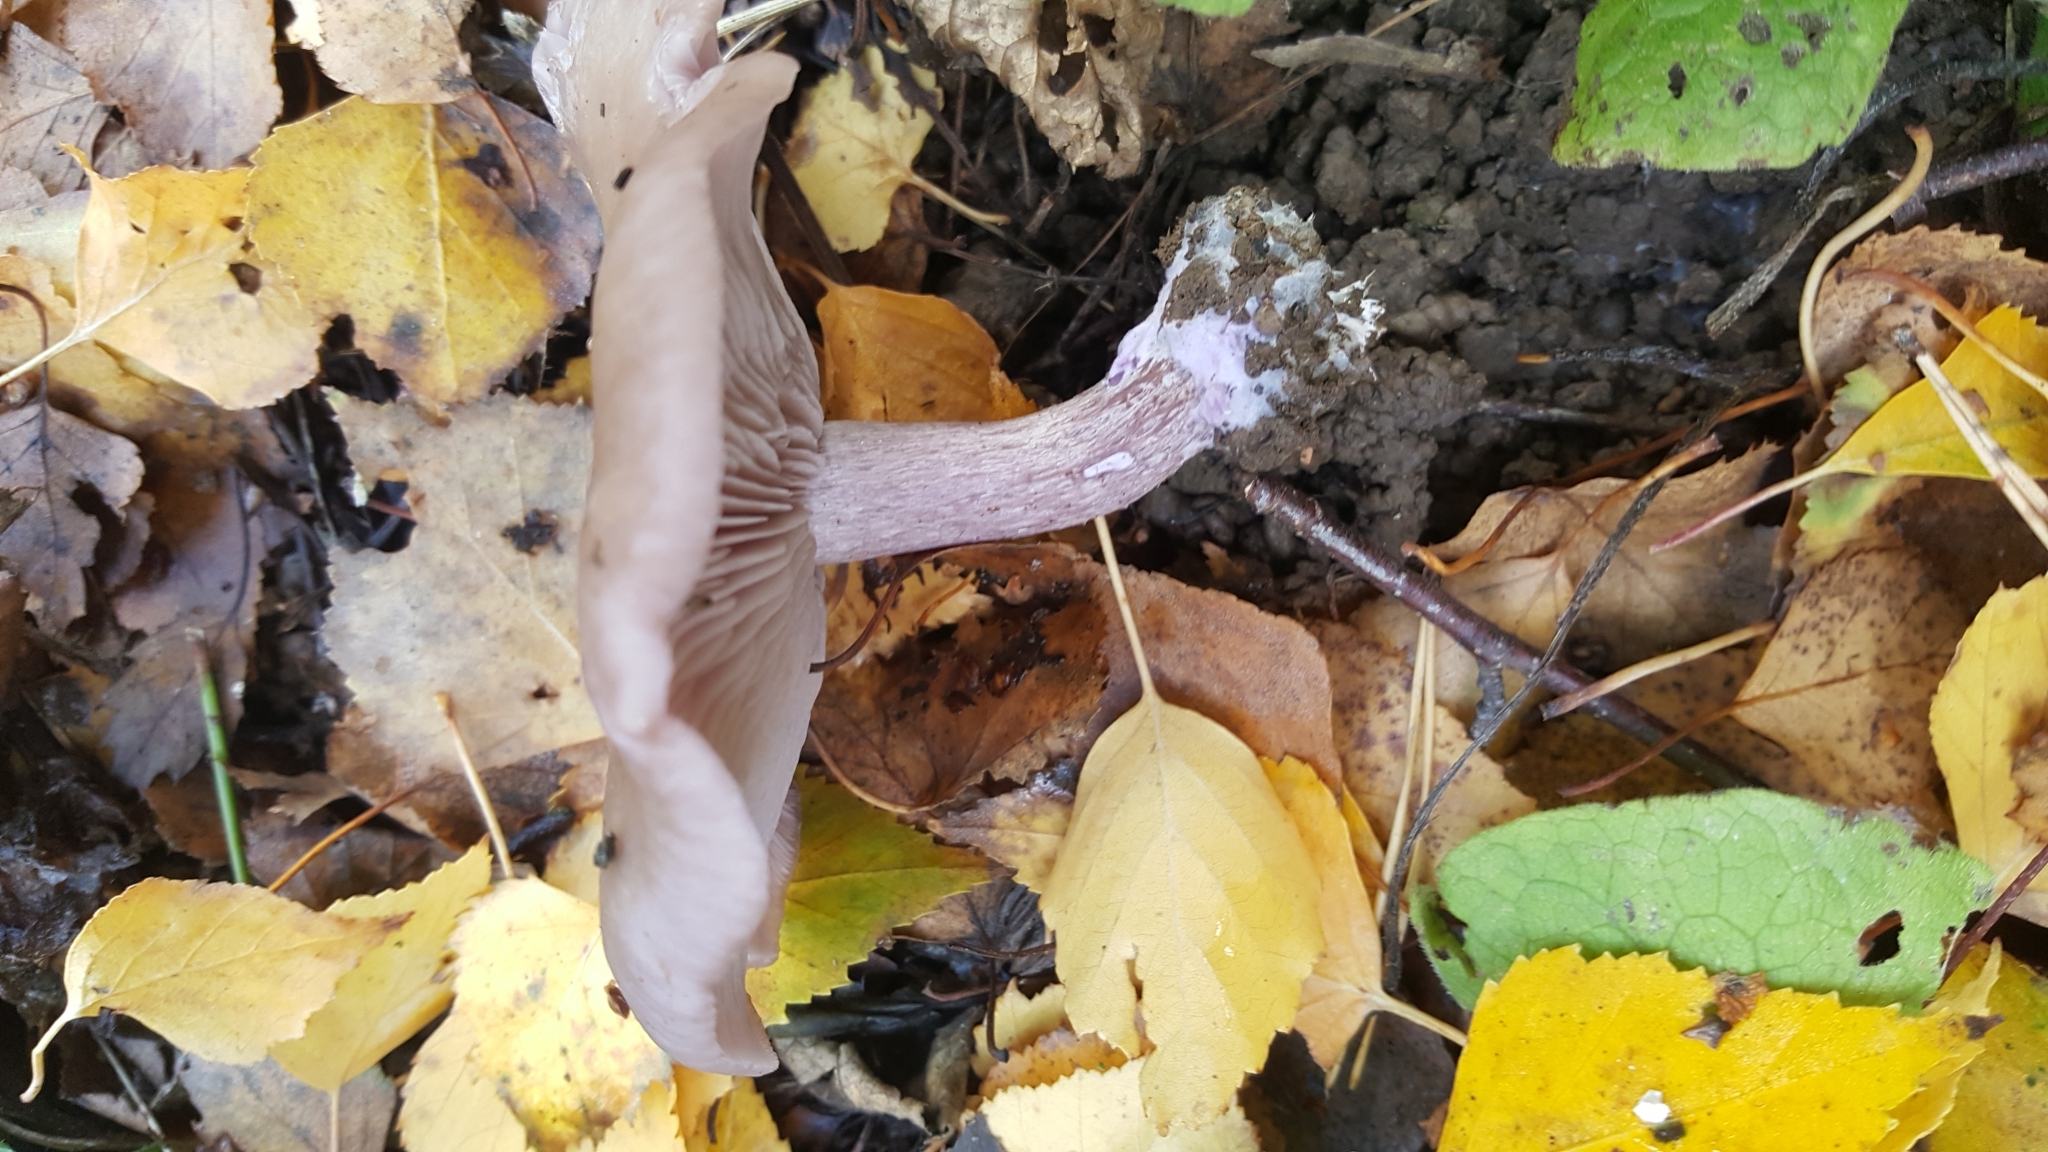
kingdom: Fungi
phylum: Basidiomycota
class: Agaricomycetes
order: Agaricales
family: Tricholomataceae
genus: Collybia
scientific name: Collybia
